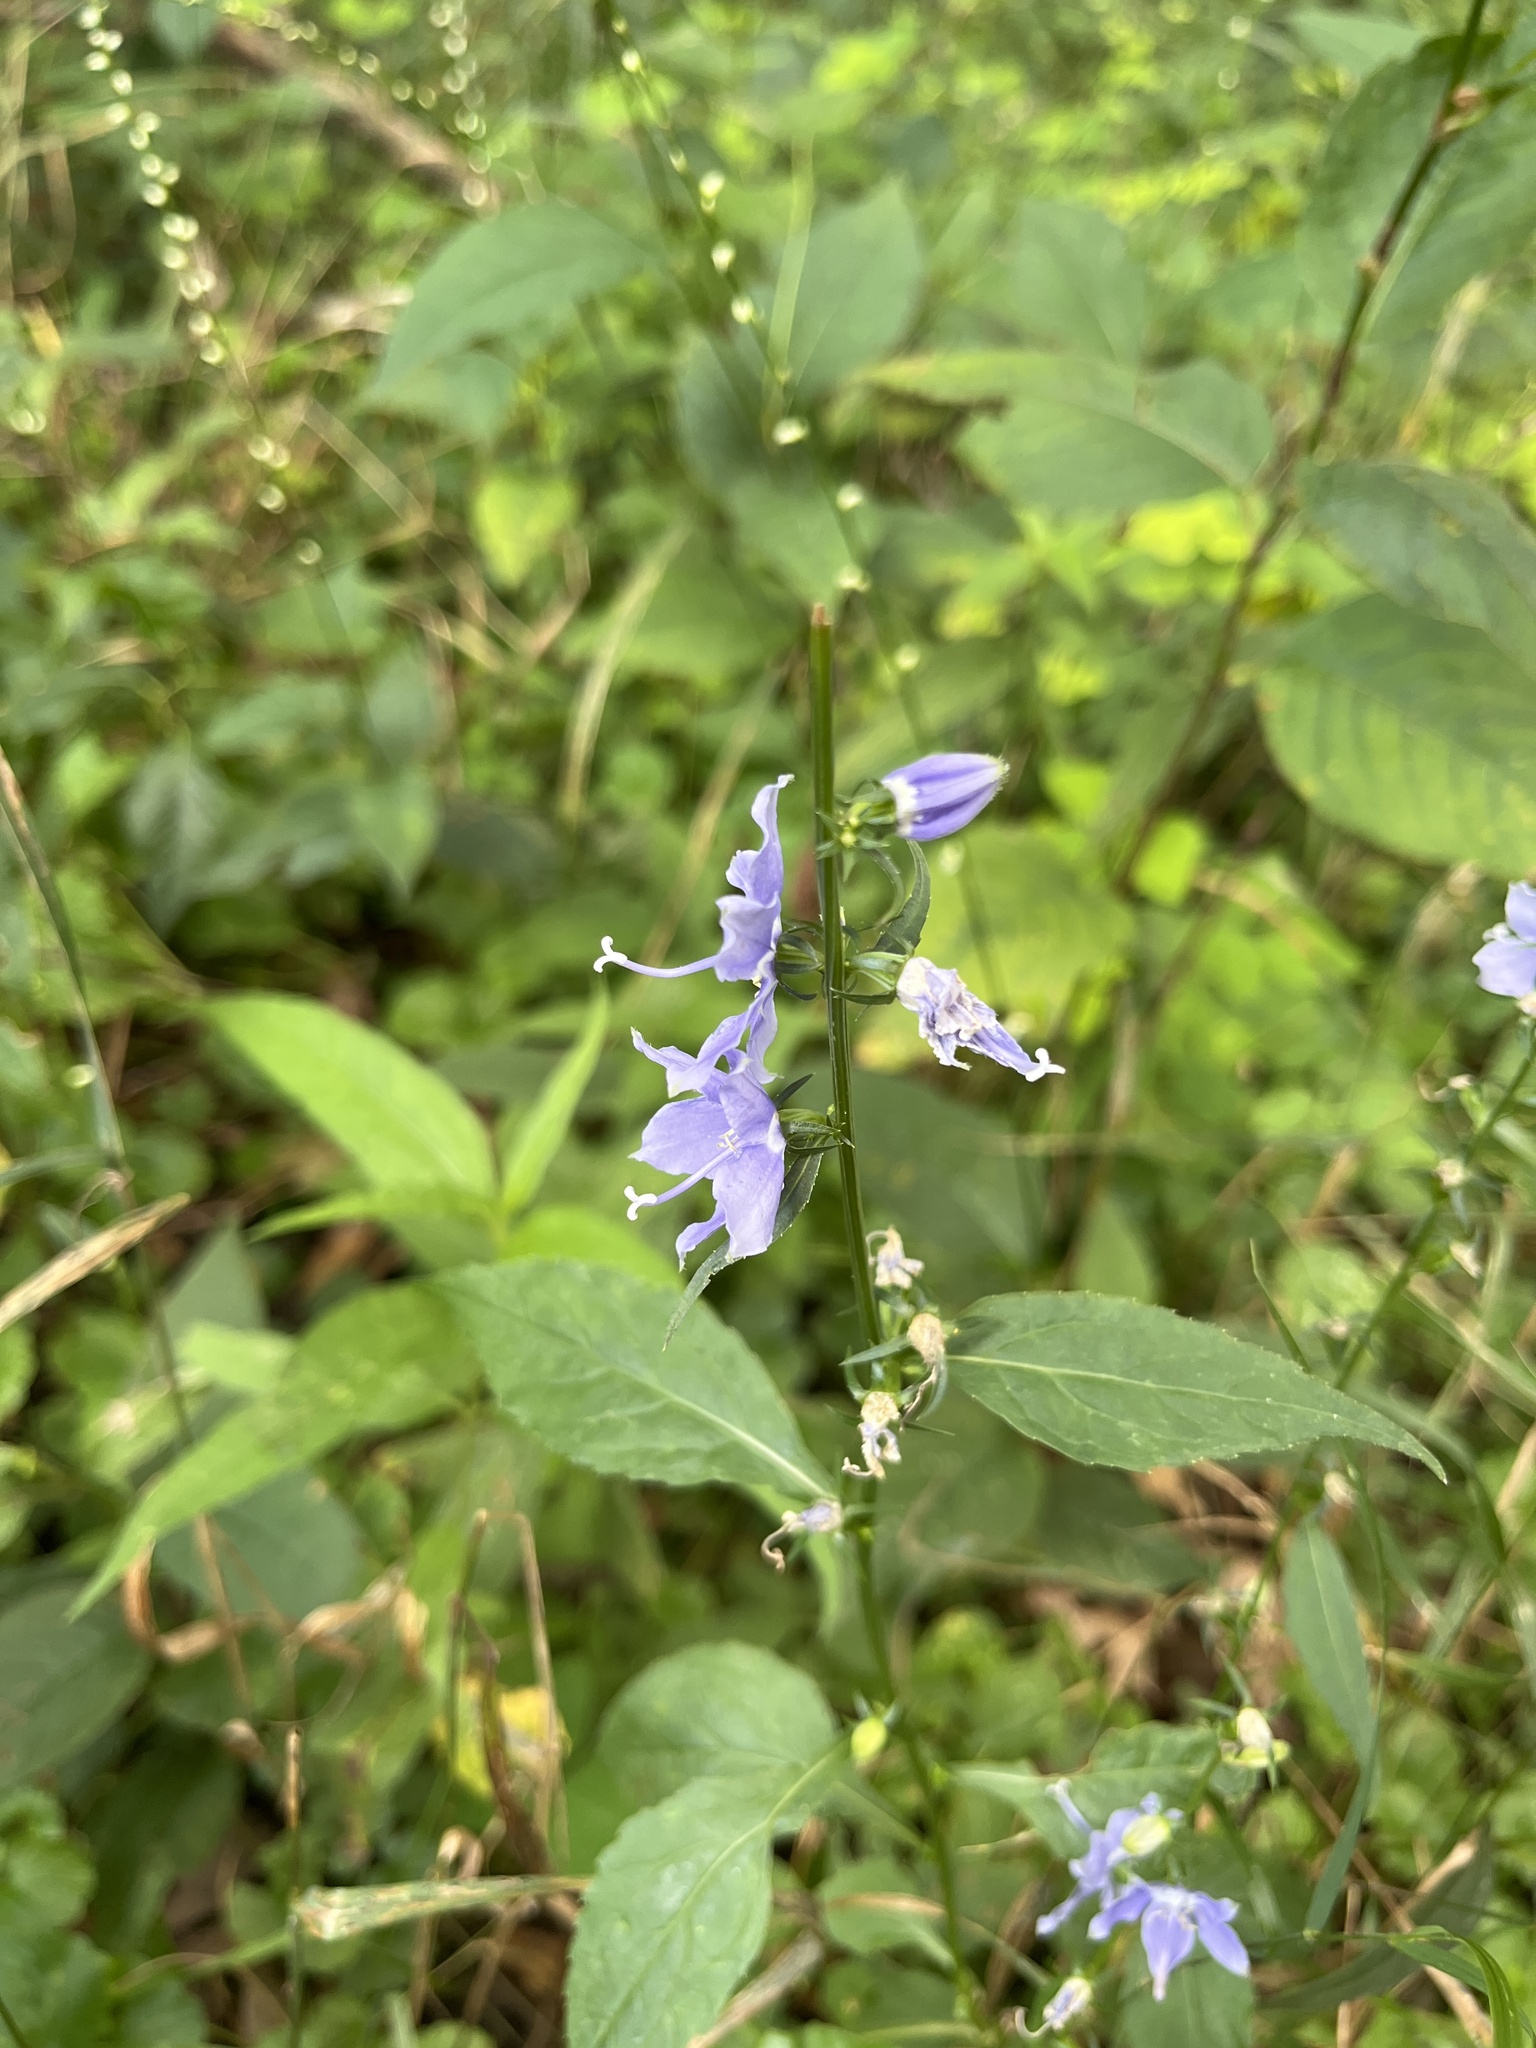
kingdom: Plantae
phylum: Tracheophyta
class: Magnoliopsida
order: Asterales
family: Campanulaceae
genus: Campanulastrum
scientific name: Campanulastrum americanum
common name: American bellflower
